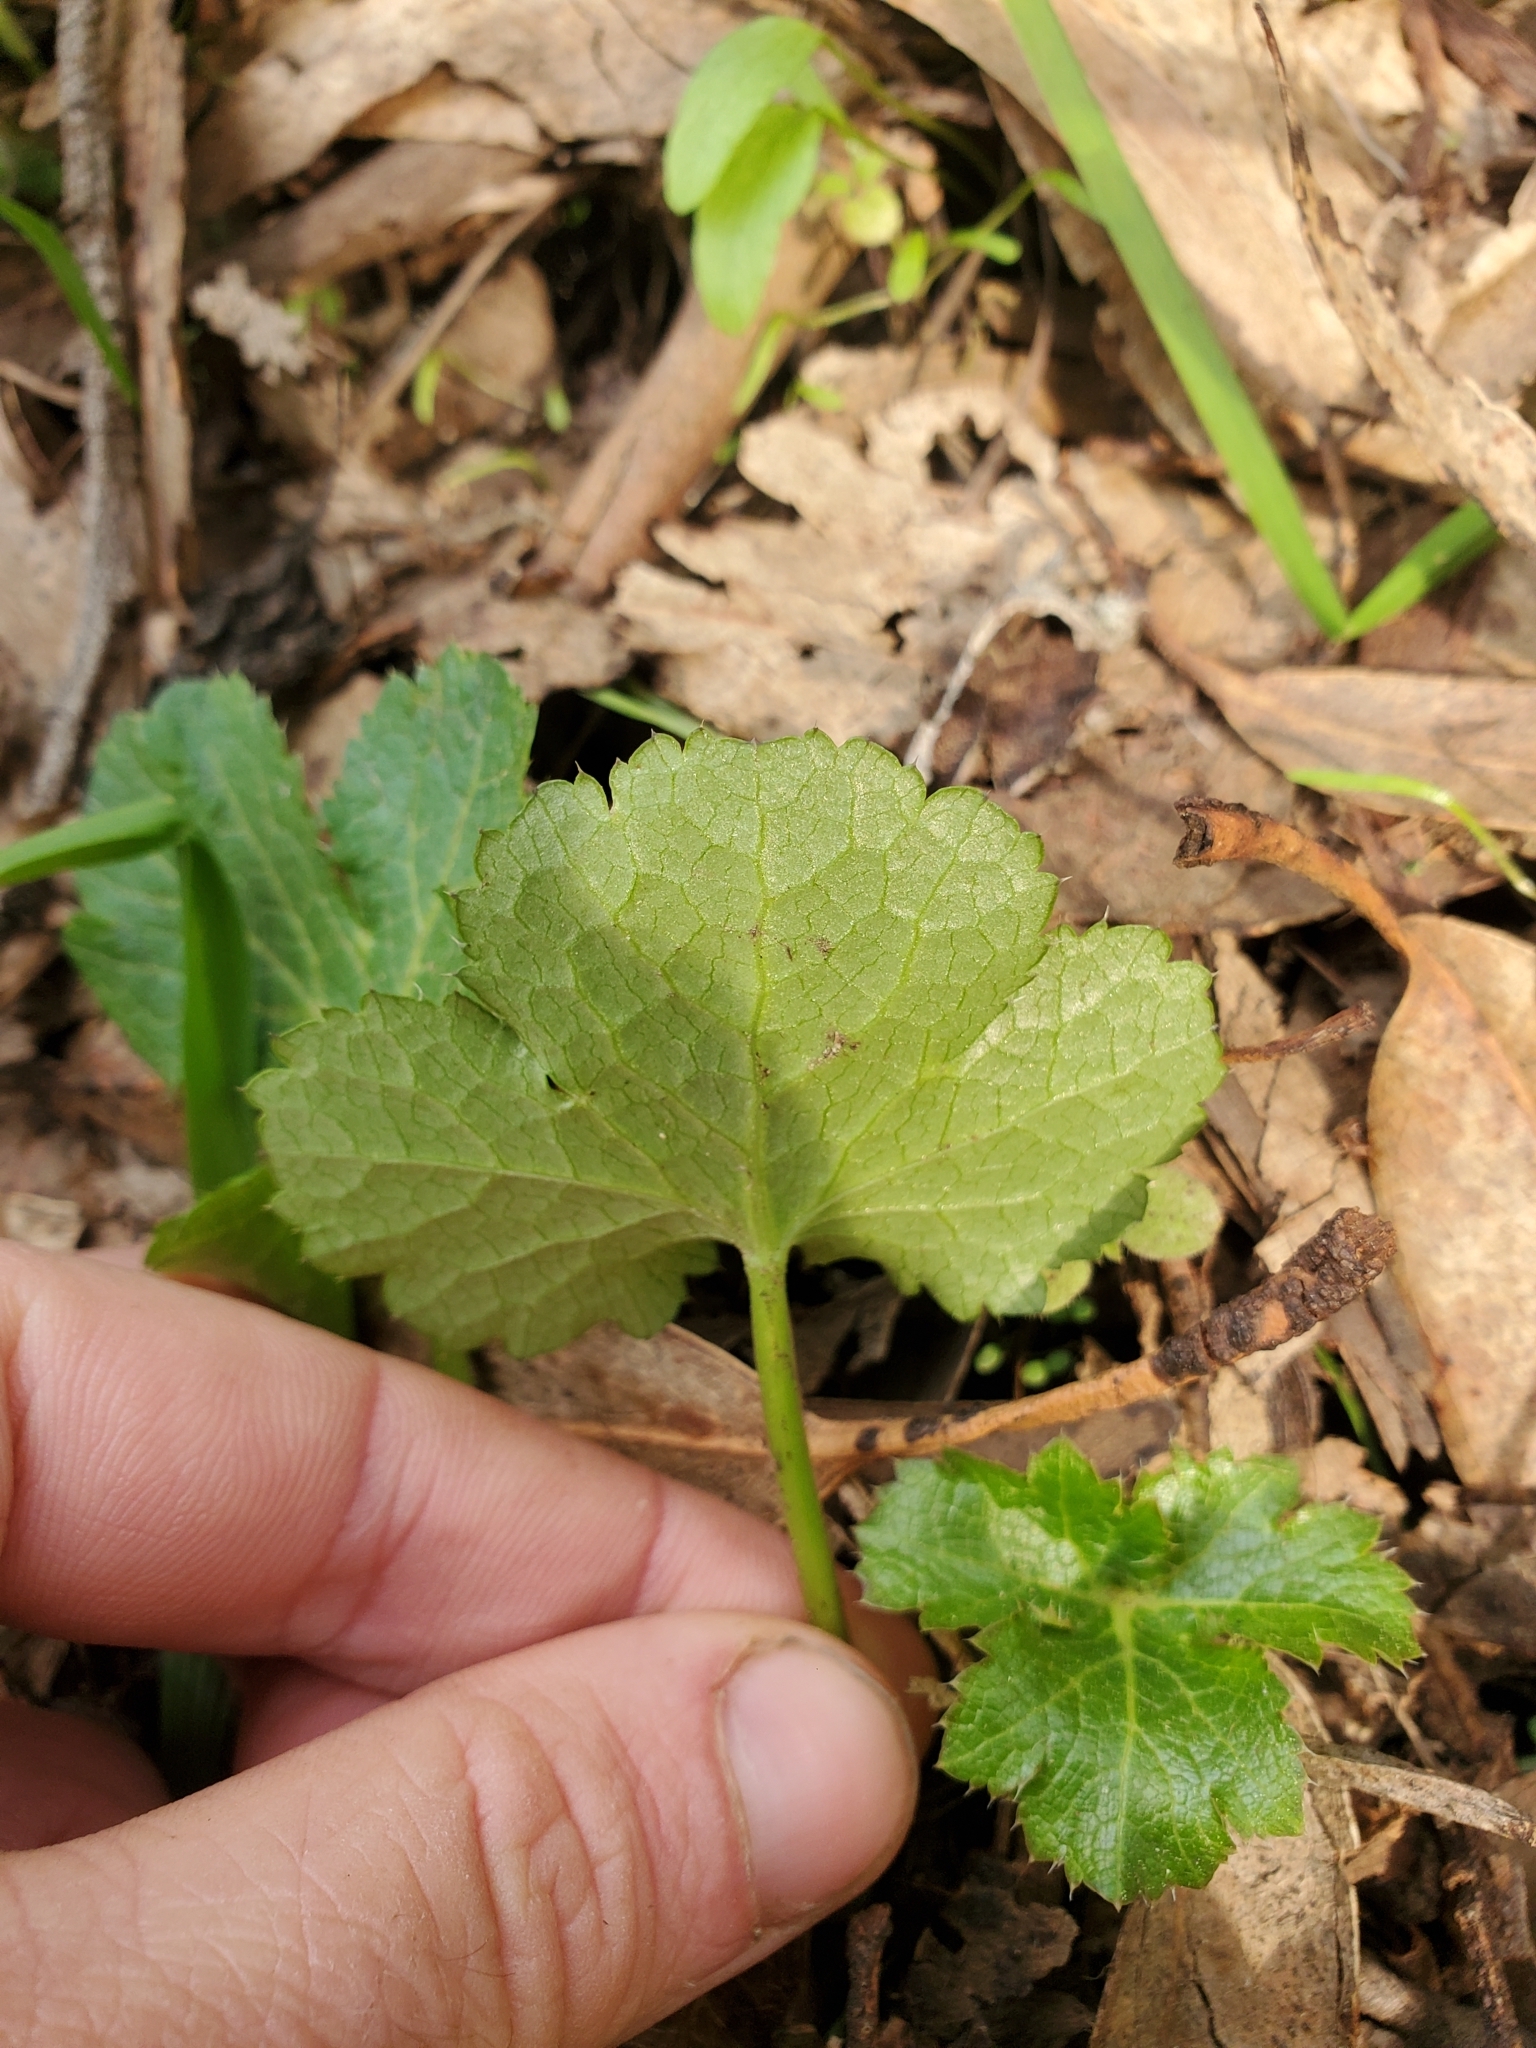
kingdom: Plantae
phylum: Tracheophyta
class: Magnoliopsida
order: Apiales
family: Apiaceae
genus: Sanicula
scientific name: Sanicula crassicaulis
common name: Western snakeroot
